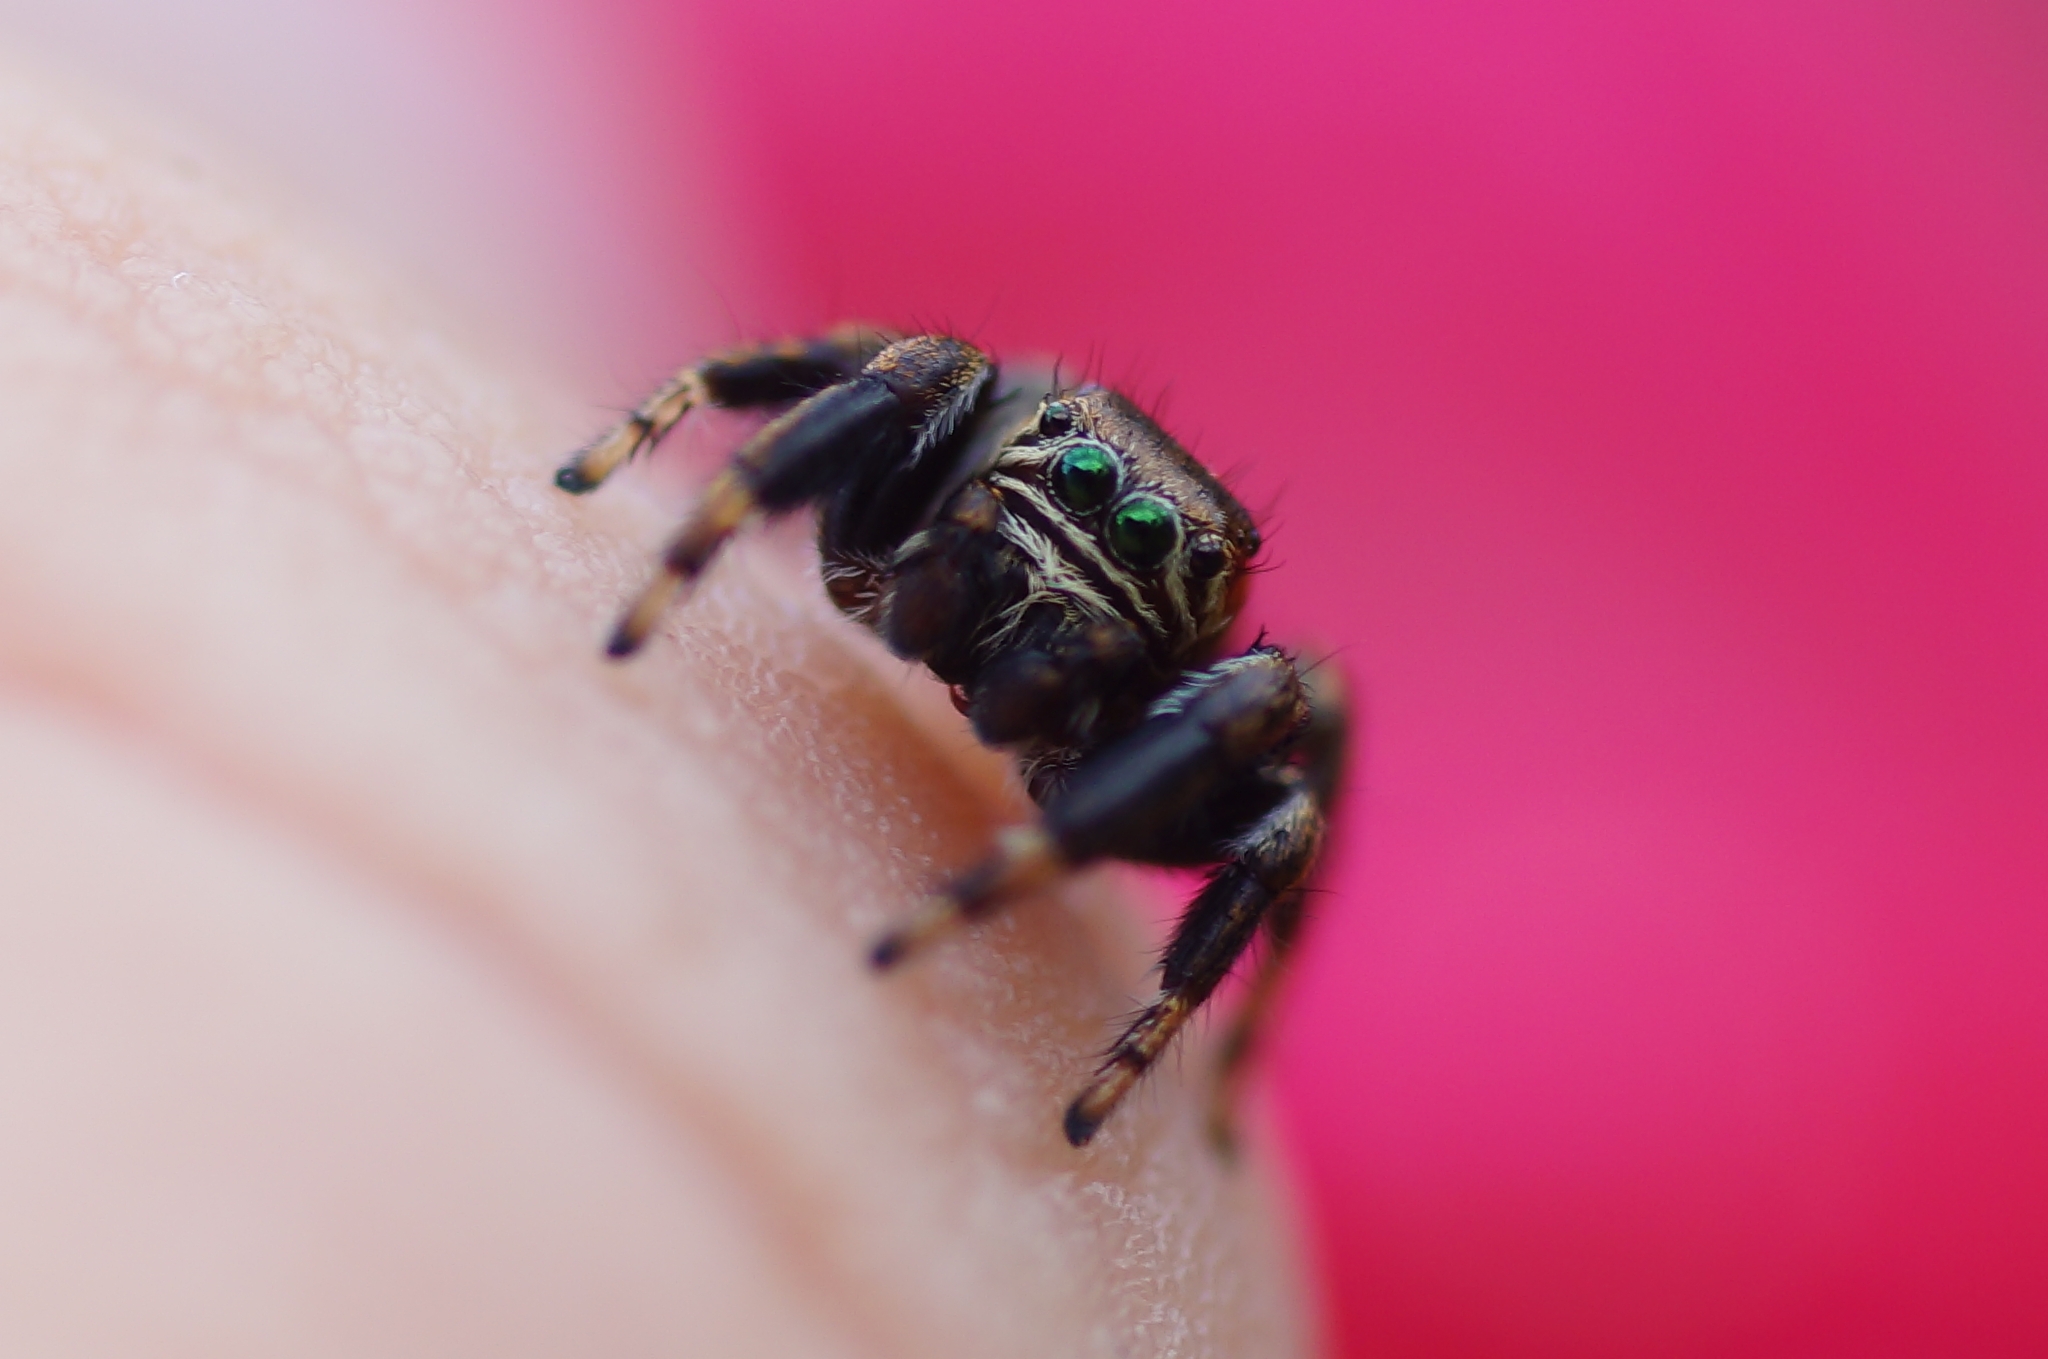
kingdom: Animalia
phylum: Arthropoda
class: Arachnida
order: Araneae
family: Salticidae
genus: Evarcha
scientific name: Evarcha arcuata
